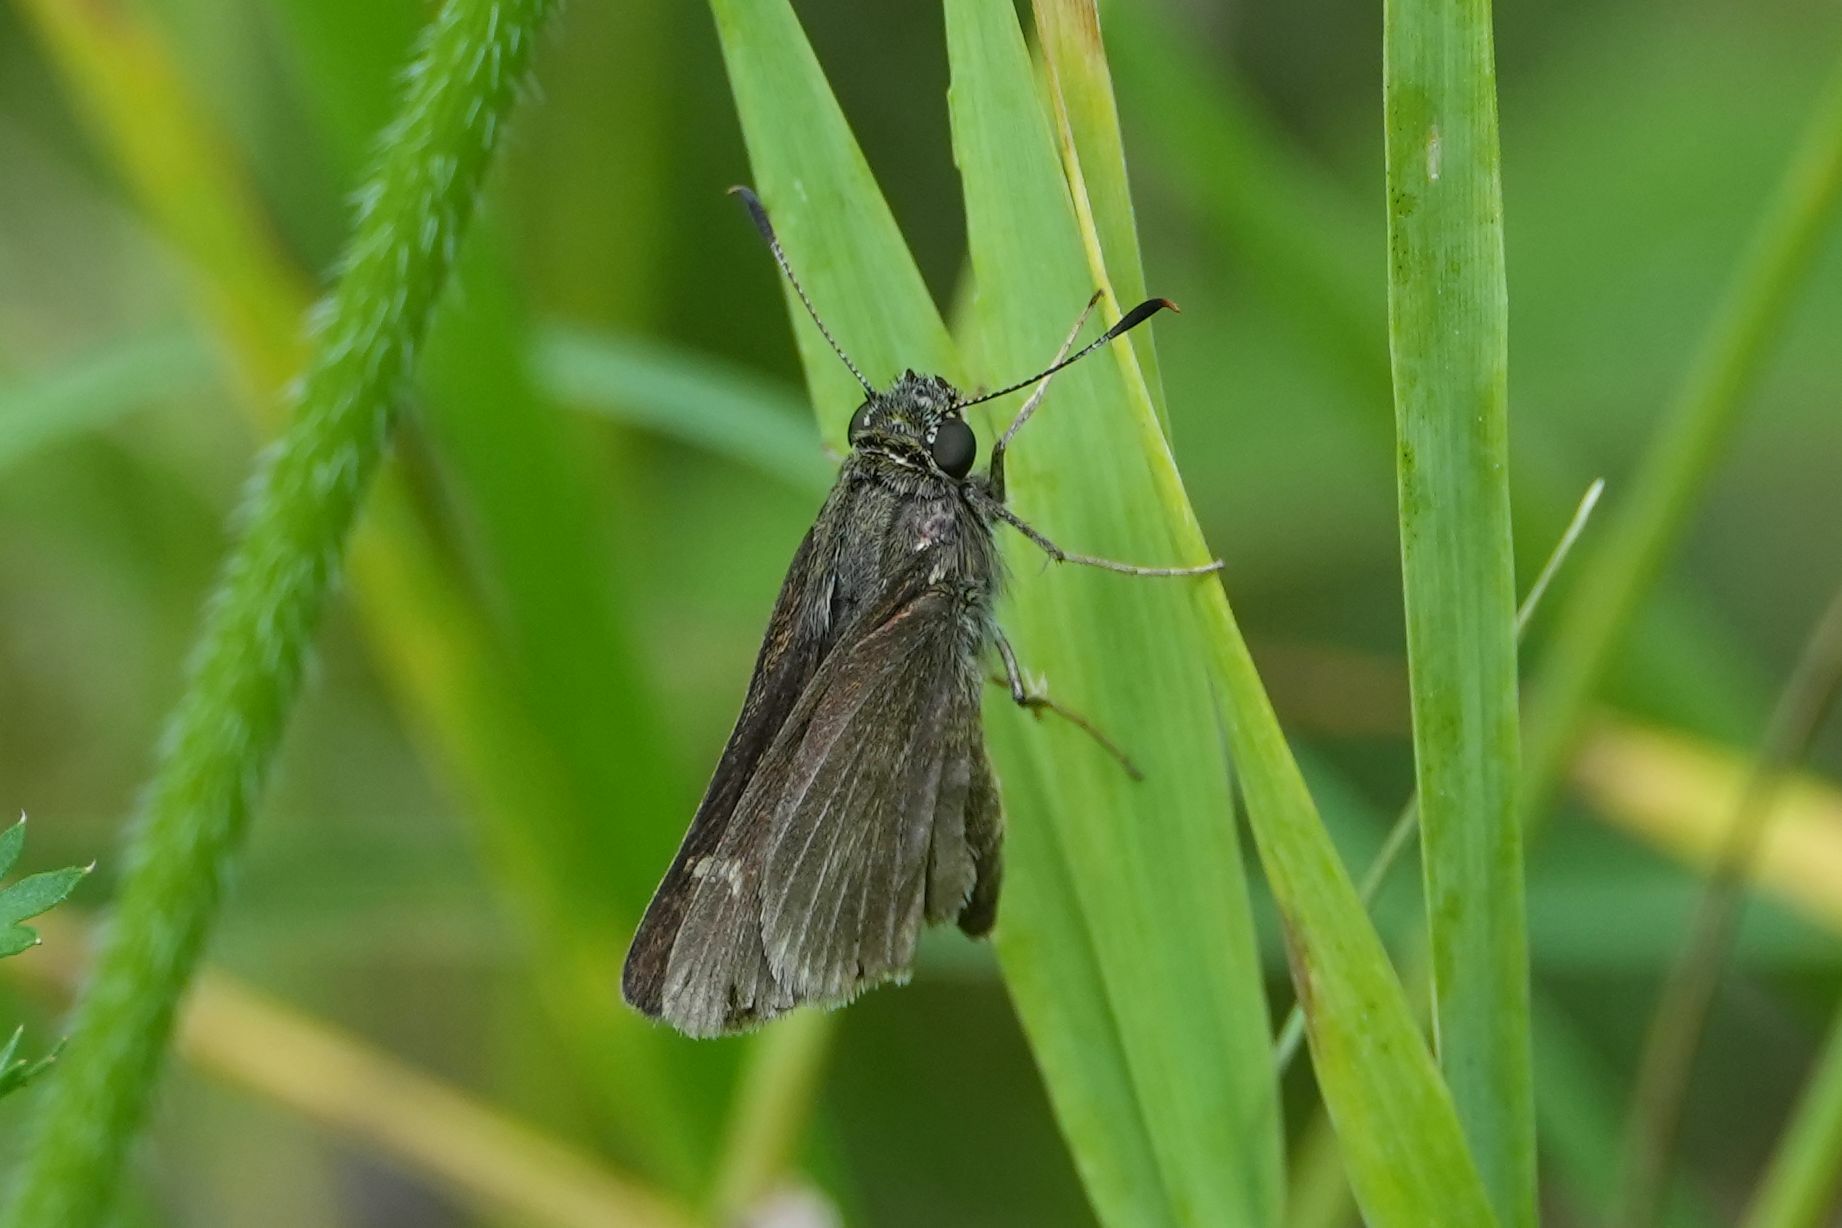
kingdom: Animalia
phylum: Arthropoda
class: Insecta
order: Lepidoptera
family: Hesperiidae
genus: Euphyes
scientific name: Euphyes vestris
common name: Dun skipper
